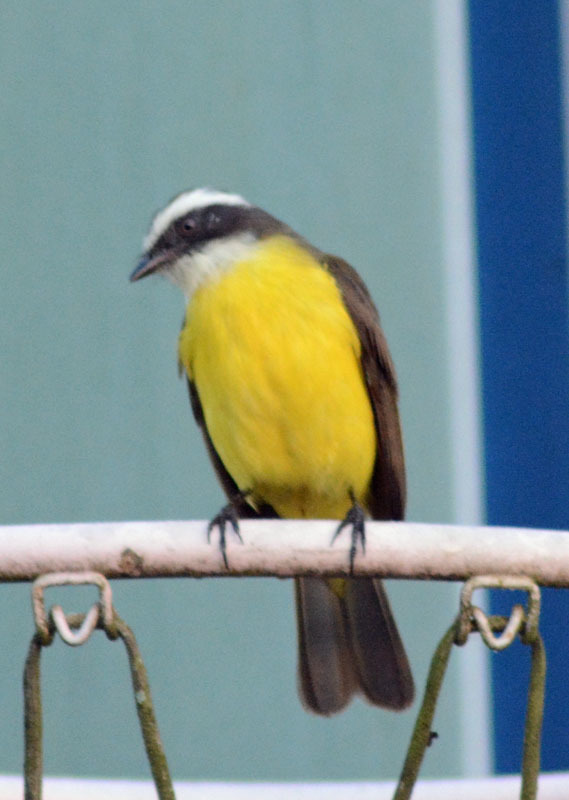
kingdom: Animalia
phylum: Chordata
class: Aves
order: Passeriformes
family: Tyrannidae
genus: Myiozetetes
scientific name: Myiozetetes similis
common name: Social flycatcher
